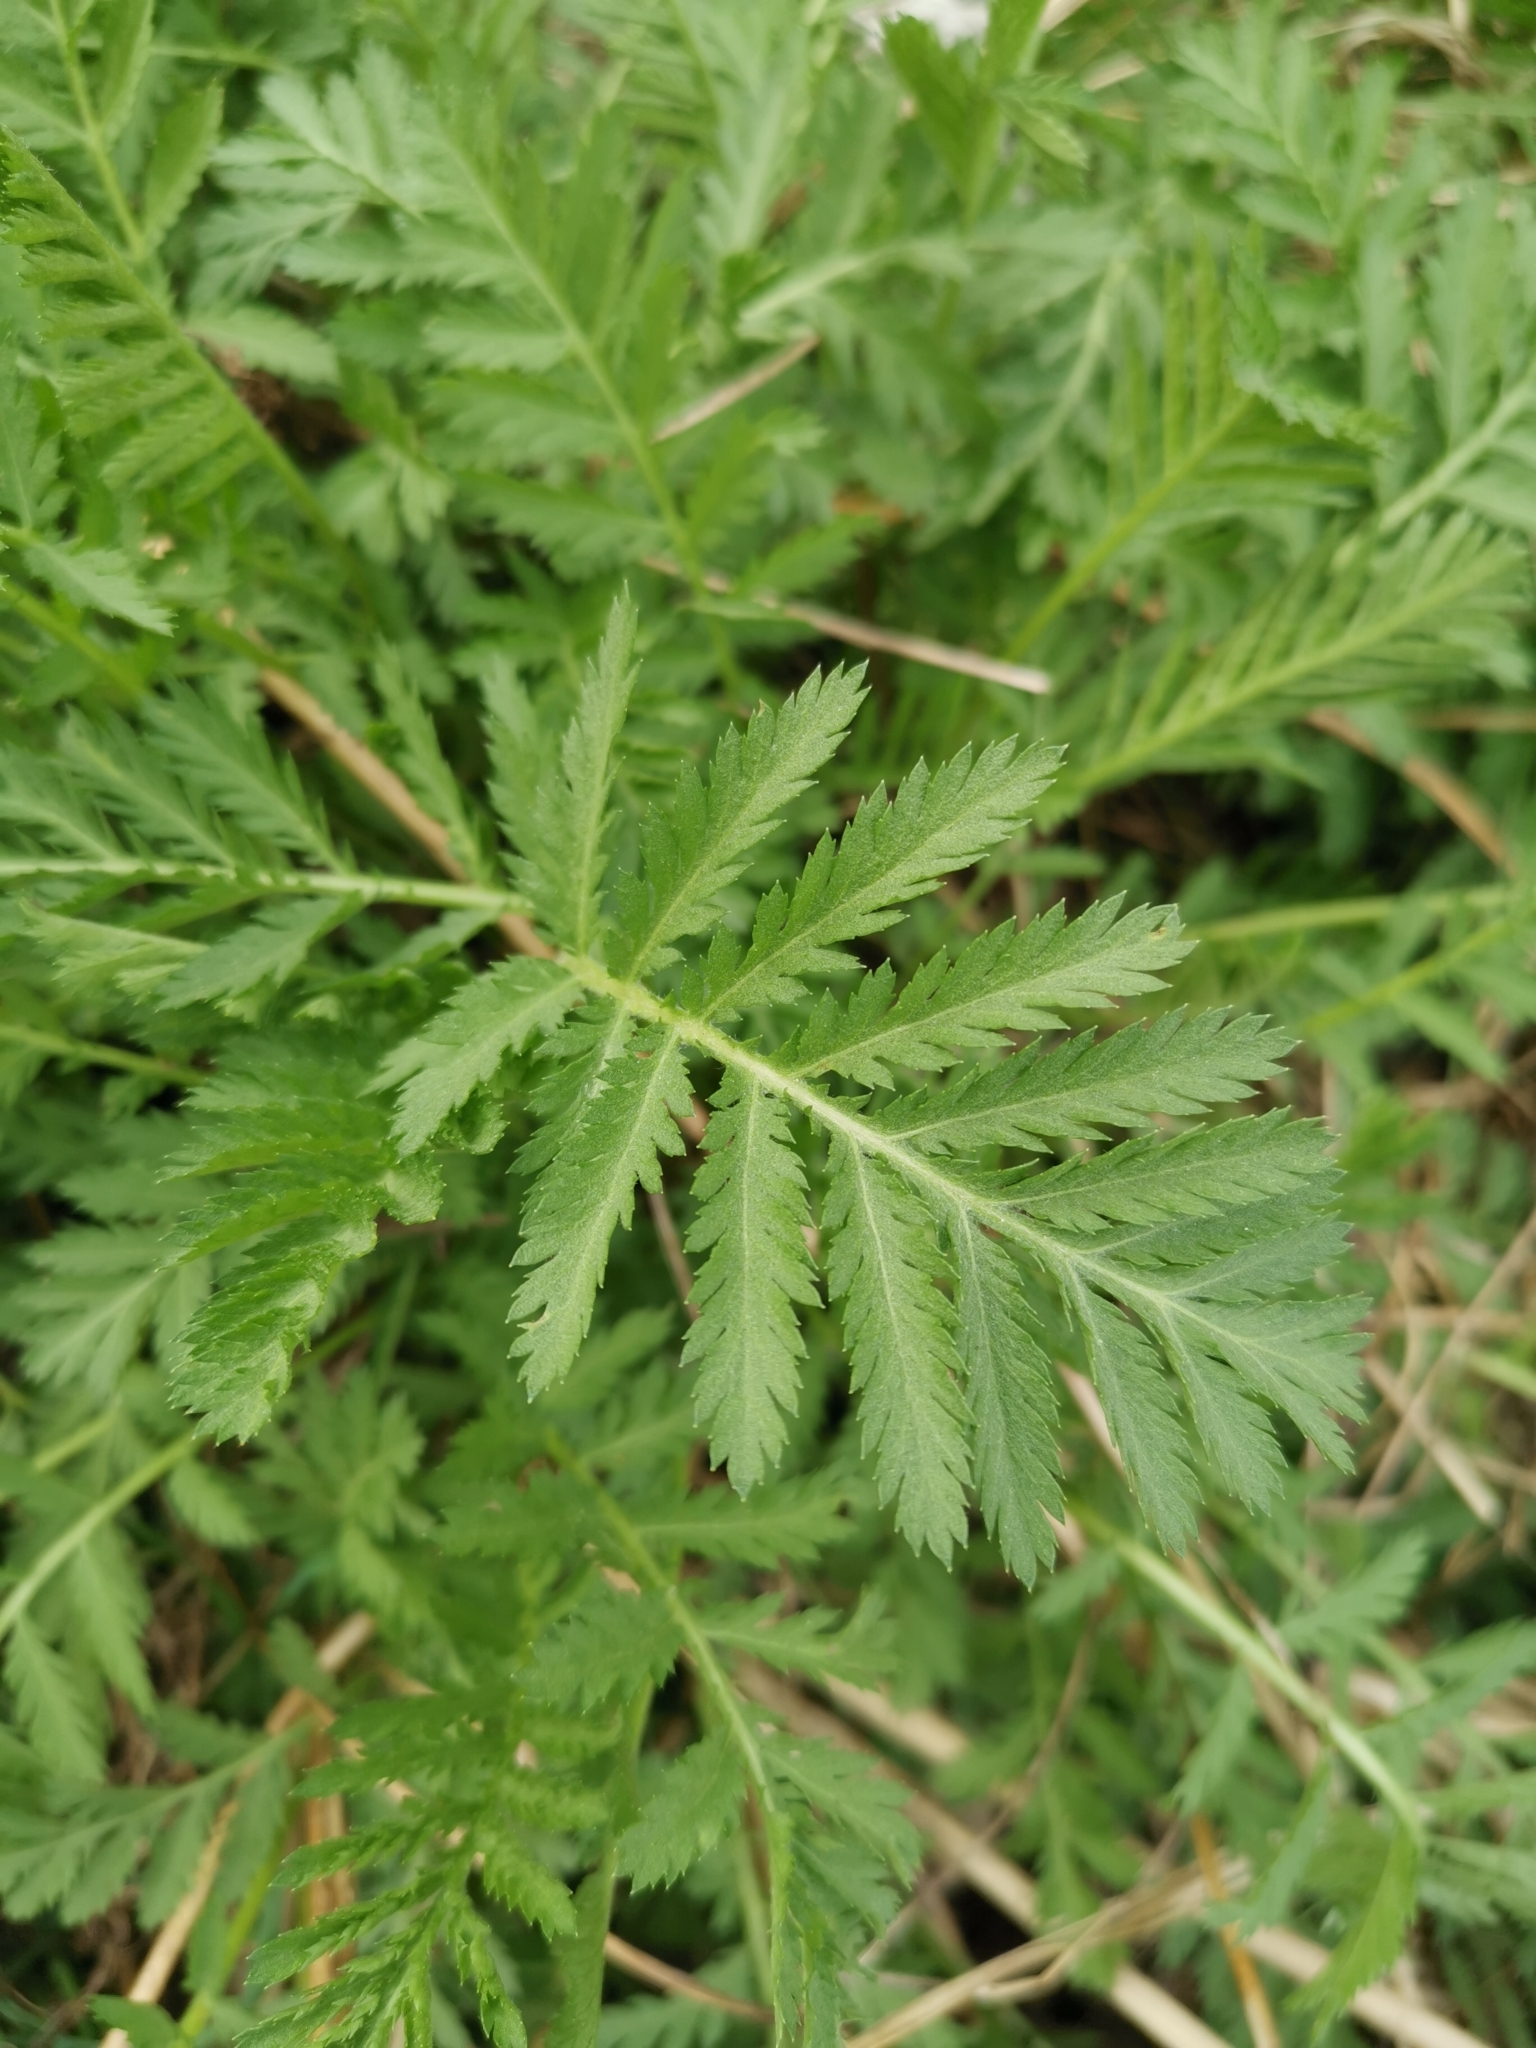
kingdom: Plantae
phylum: Tracheophyta
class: Magnoliopsida
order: Asterales
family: Asteraceae
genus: Tanacetum
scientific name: Tanacetum vulgare
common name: Common tansy
